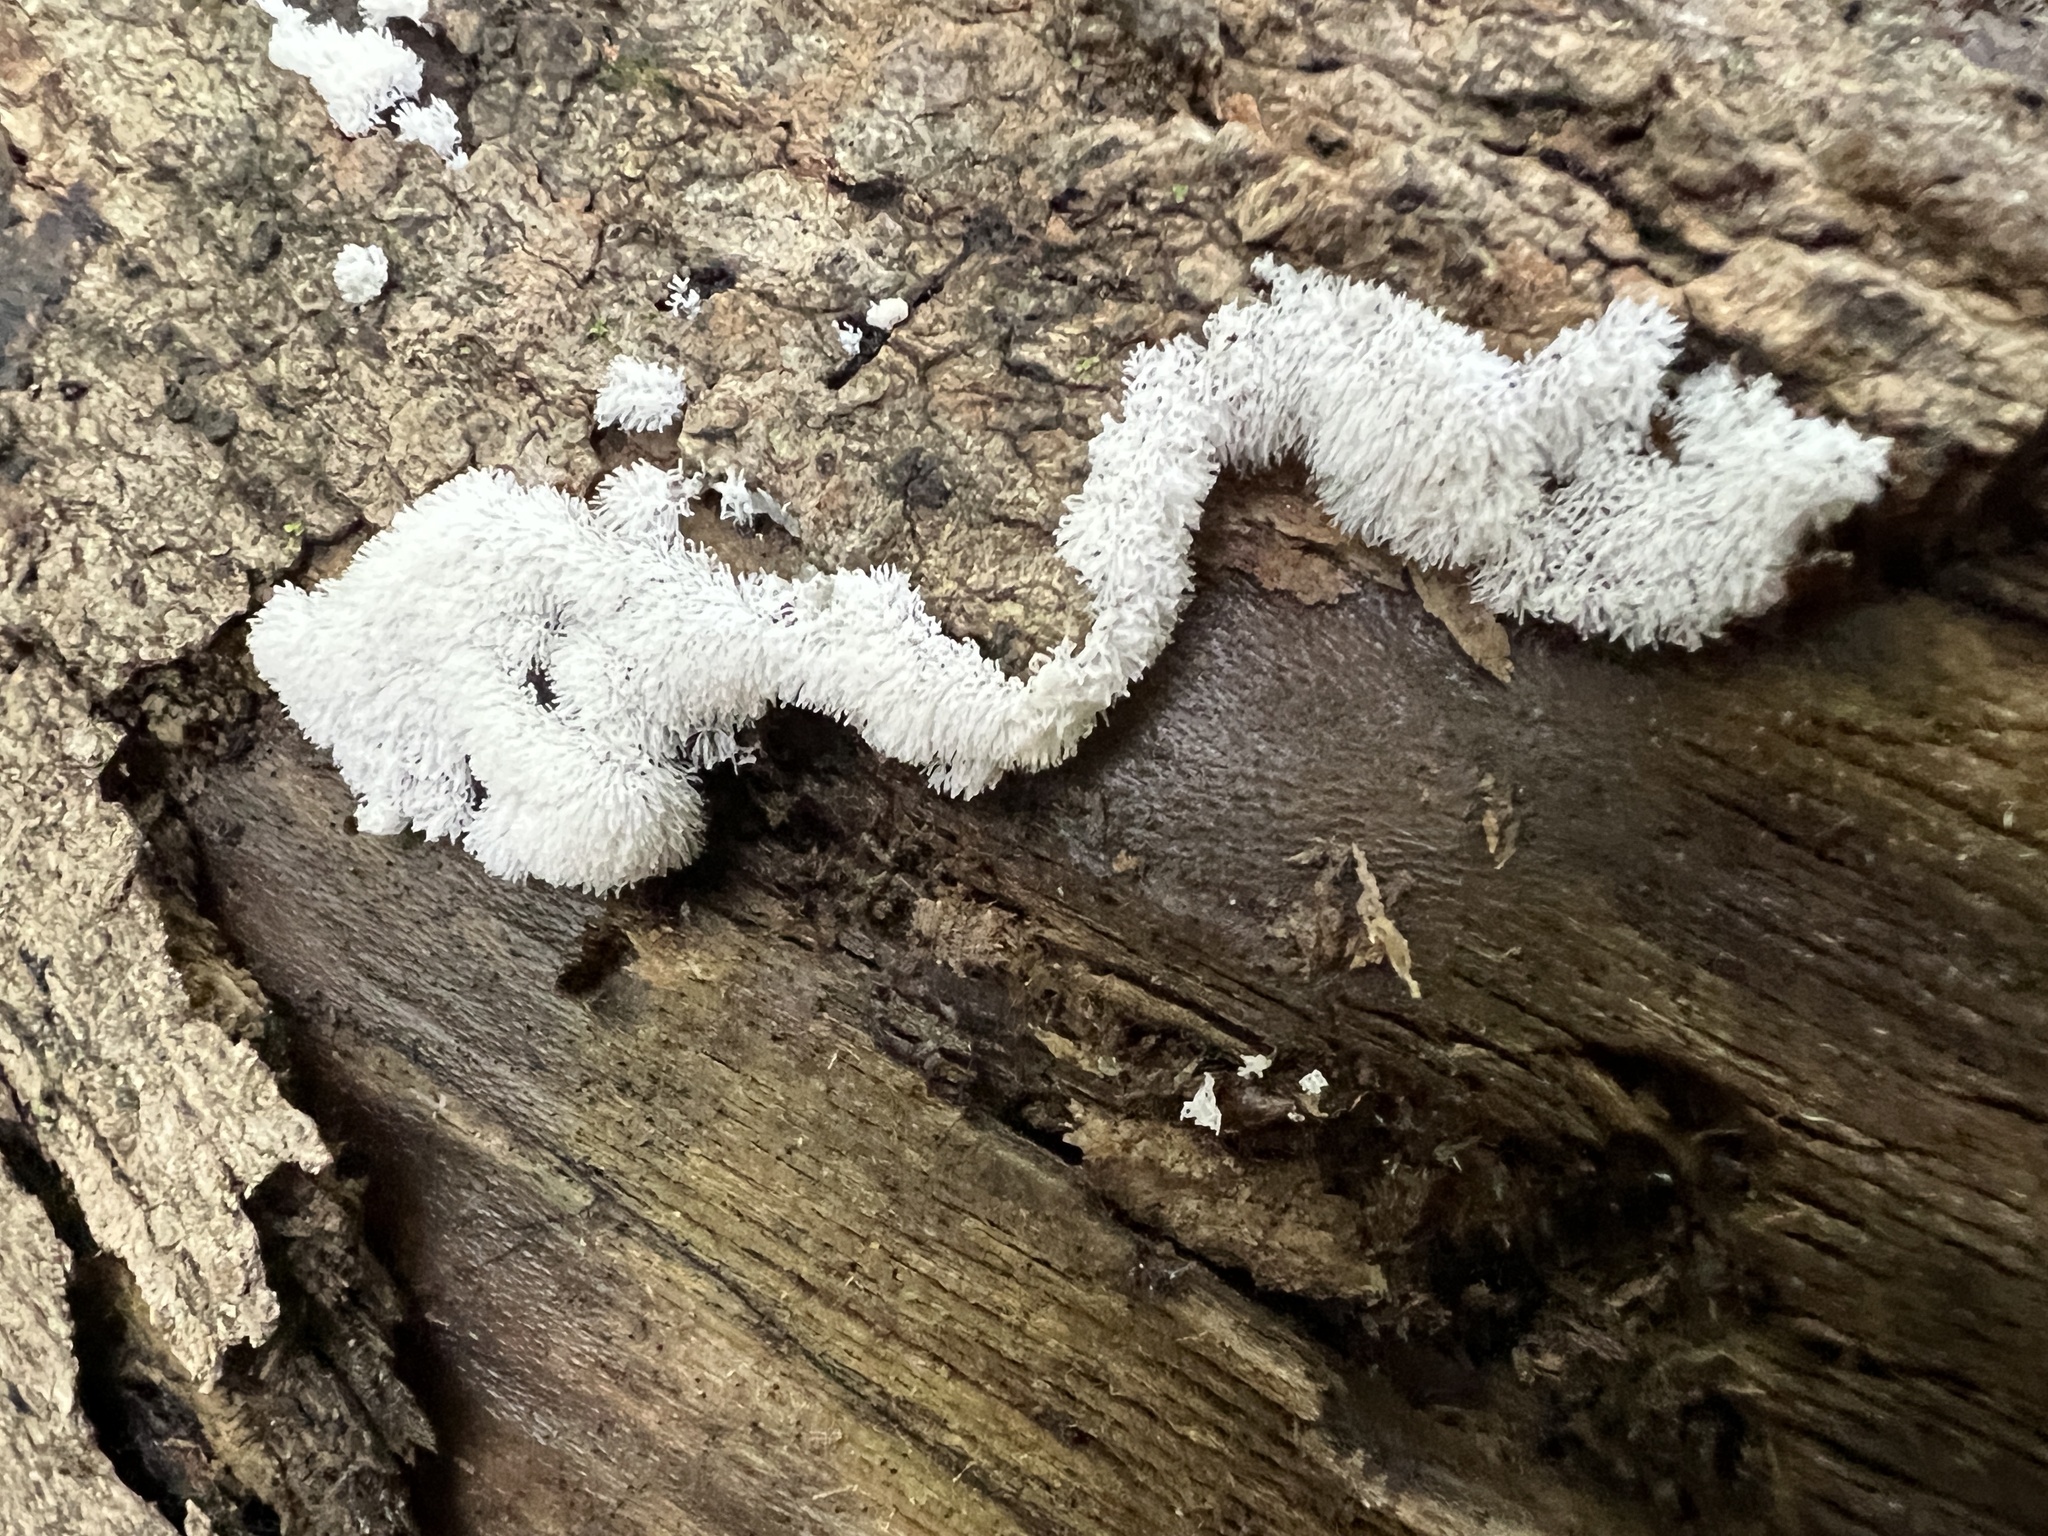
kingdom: Protozoa
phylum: Mycetozoa
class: Protosteliomycetes
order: Ceratiomyxales
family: Ceratiomyxaceae
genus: Ceratiomyxa
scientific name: Ceratiomyxa fruticulosa
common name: Honeycomb coral slime mold
